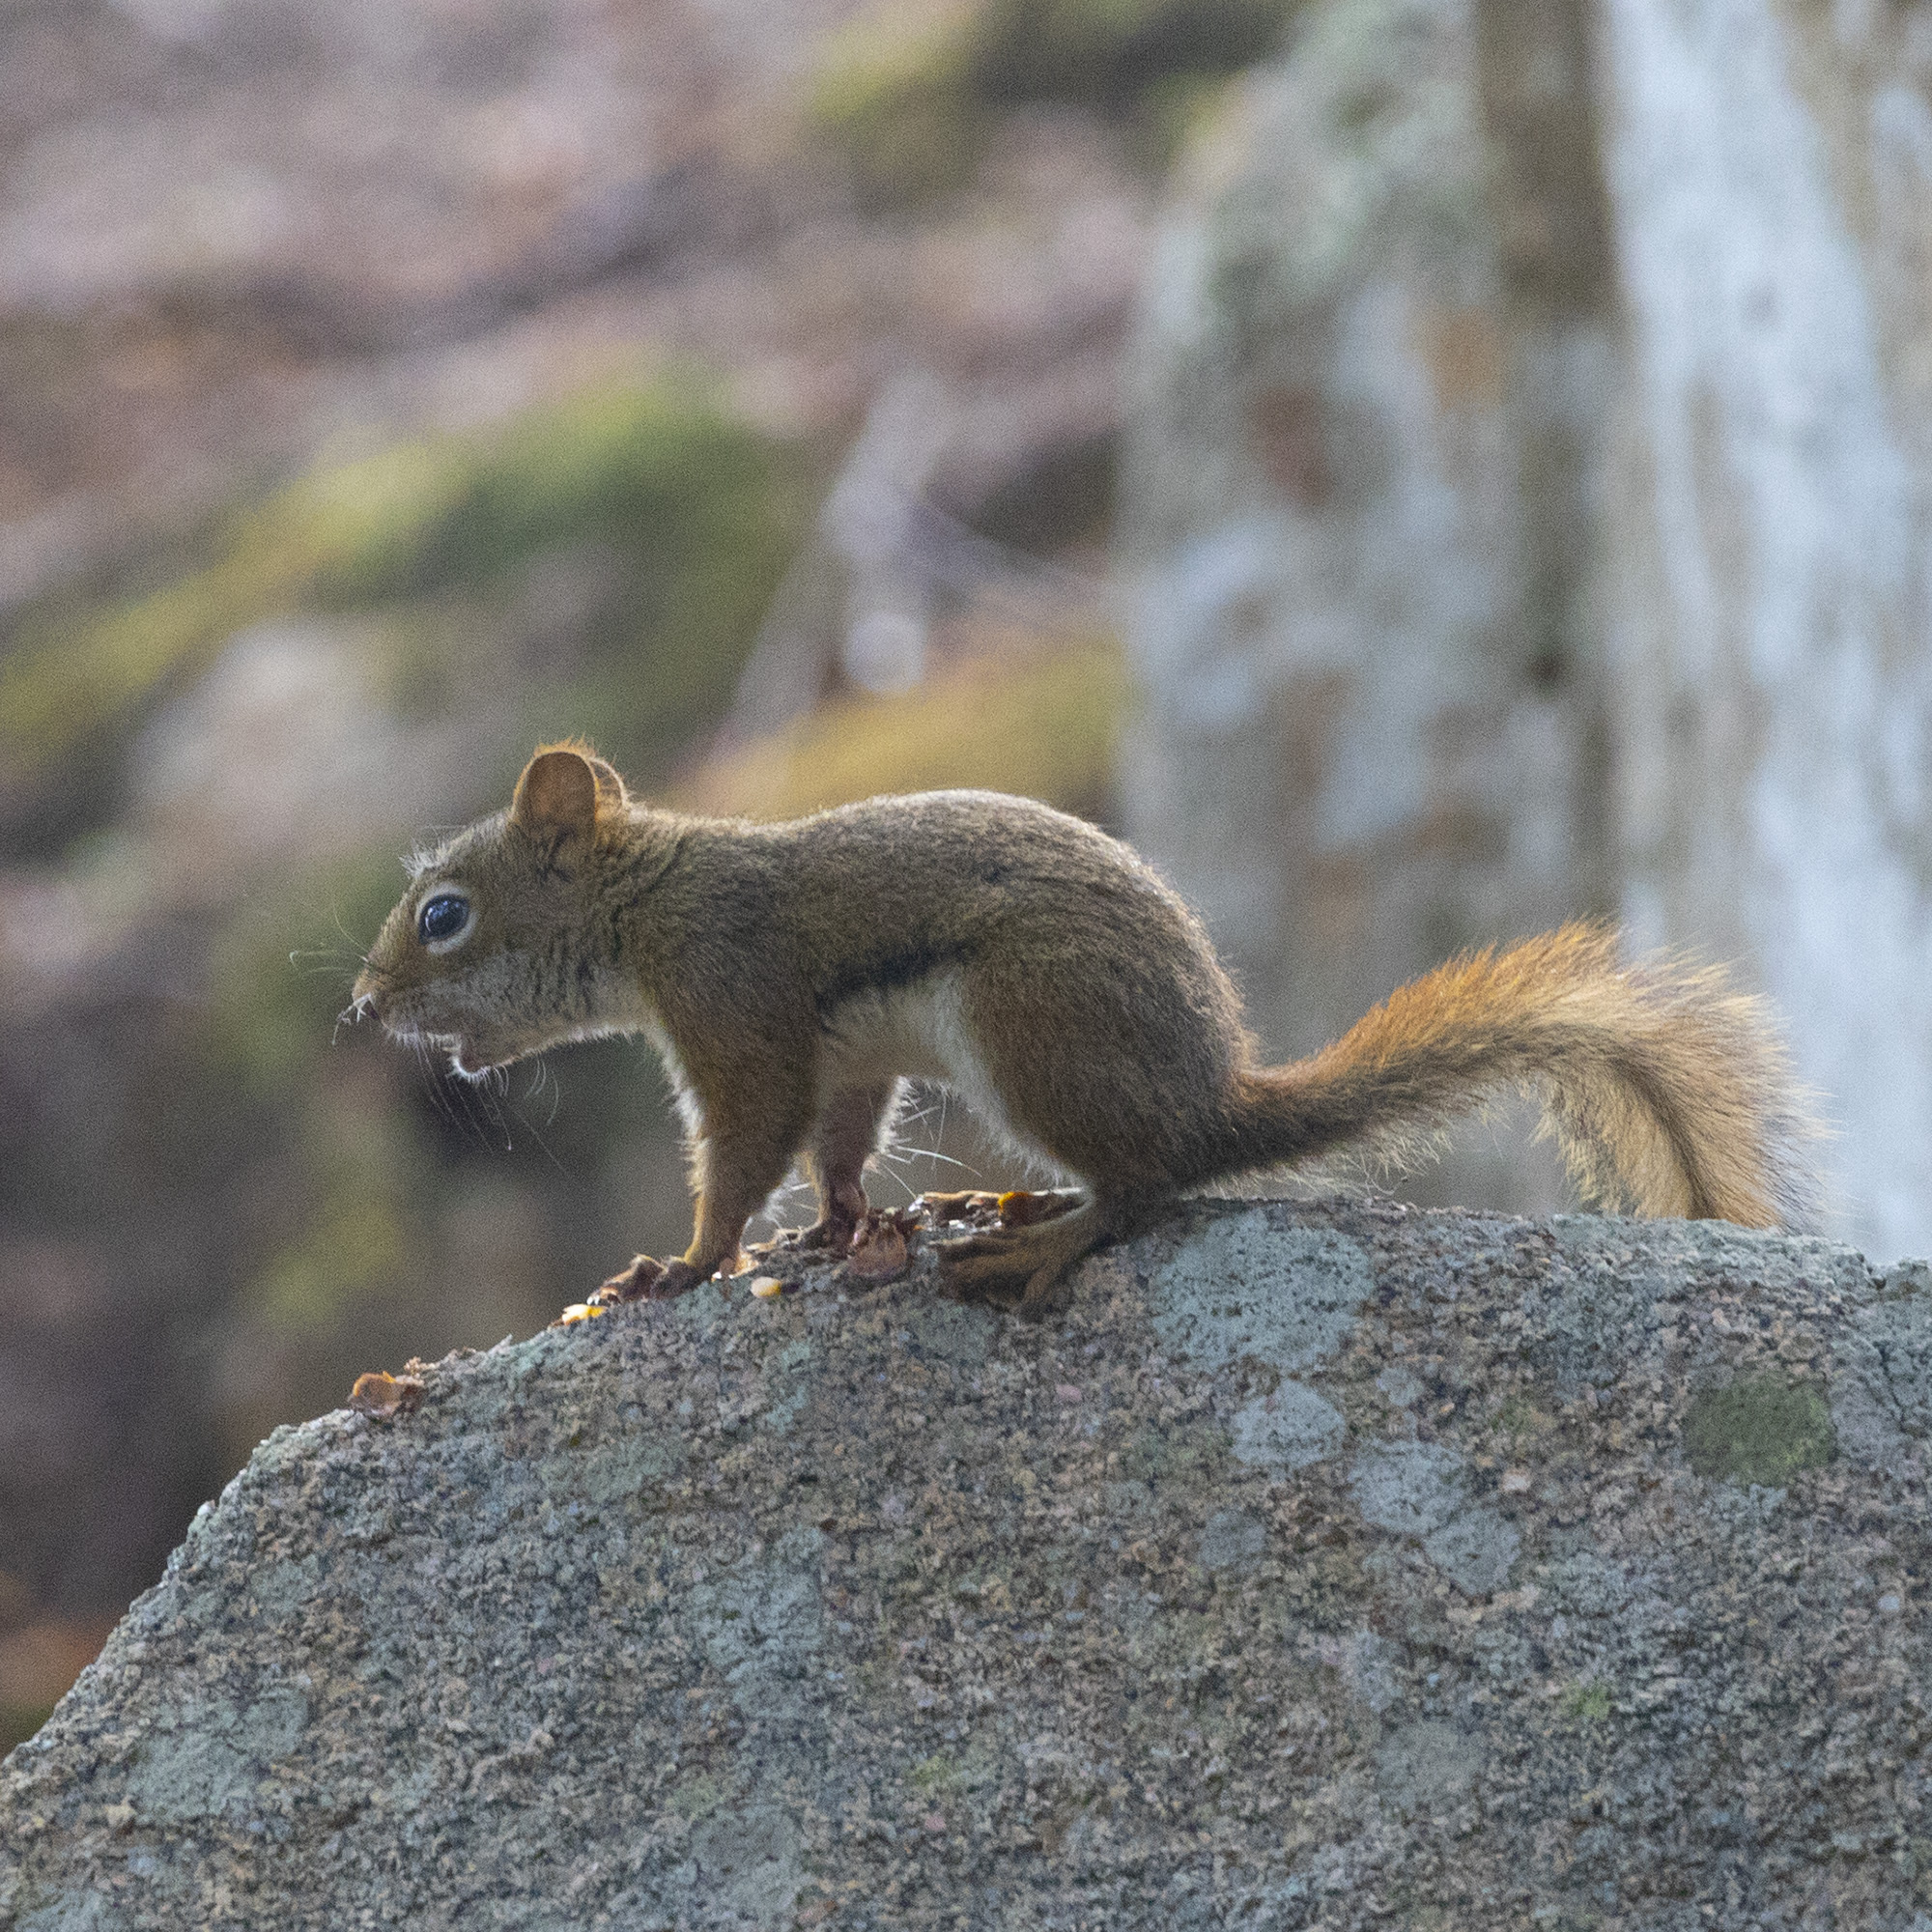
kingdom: Animalia
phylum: Chordata
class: Mammalia
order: Rodentia
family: Sciuridae
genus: Tamiasciurus
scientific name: Tamiasciurus hudsonicus
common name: Red squirrel
